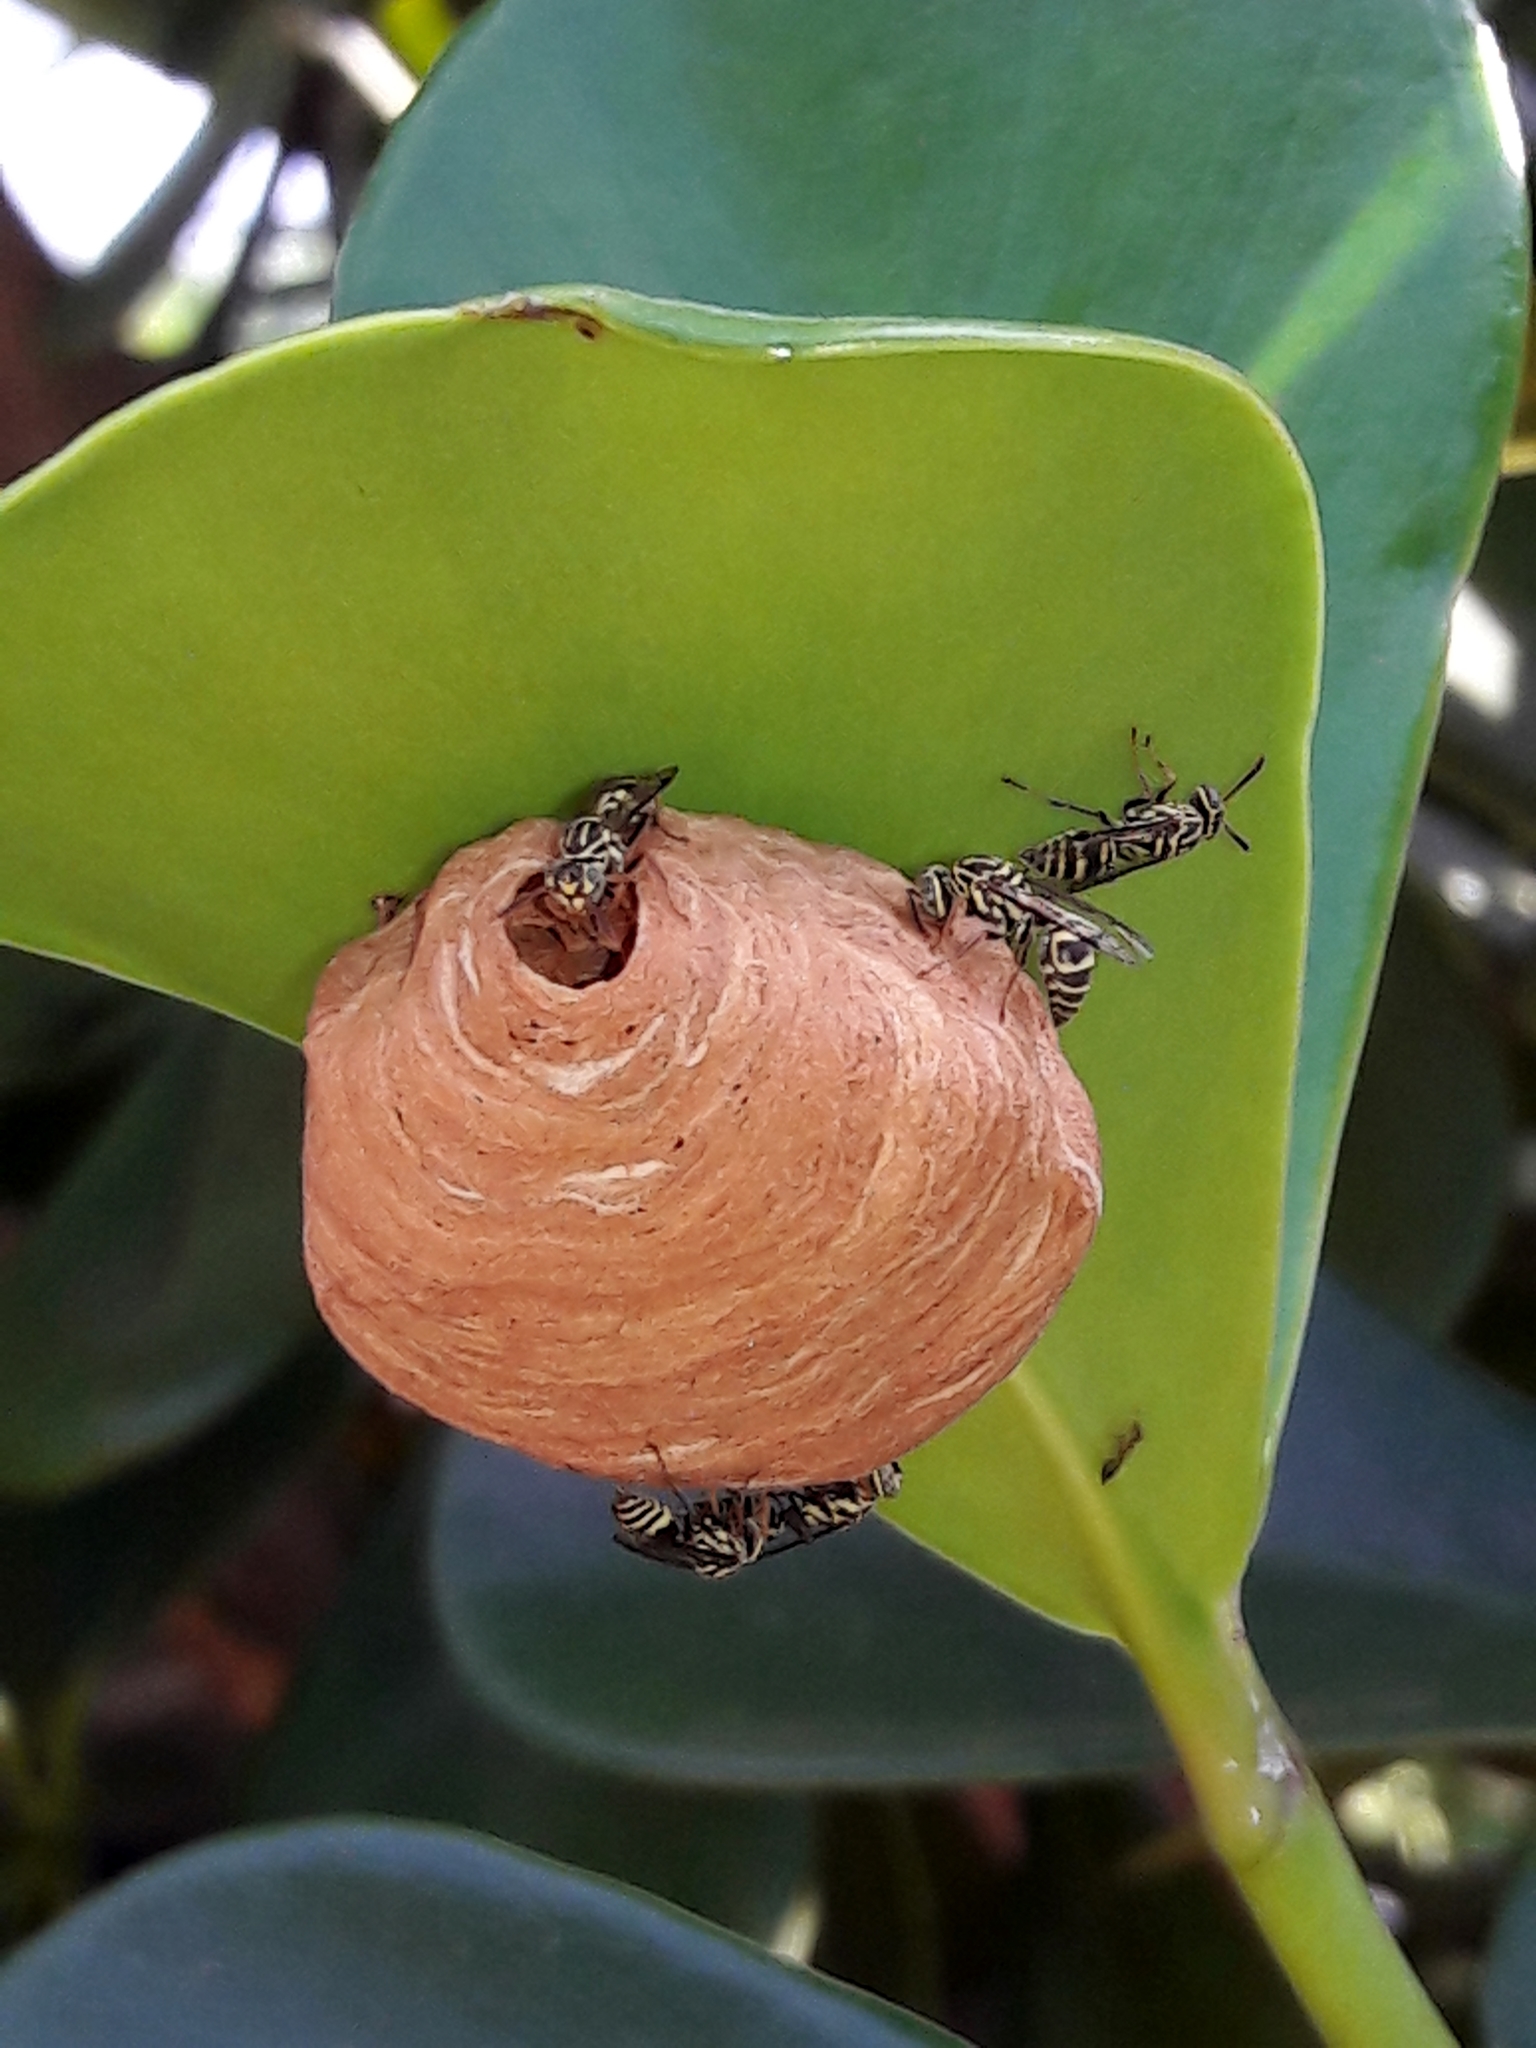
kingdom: Animalia
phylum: Arthropoda
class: Insecta
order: Hymenoptera
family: Vespidae
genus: Protopolybia
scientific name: Protopolybia exigua
